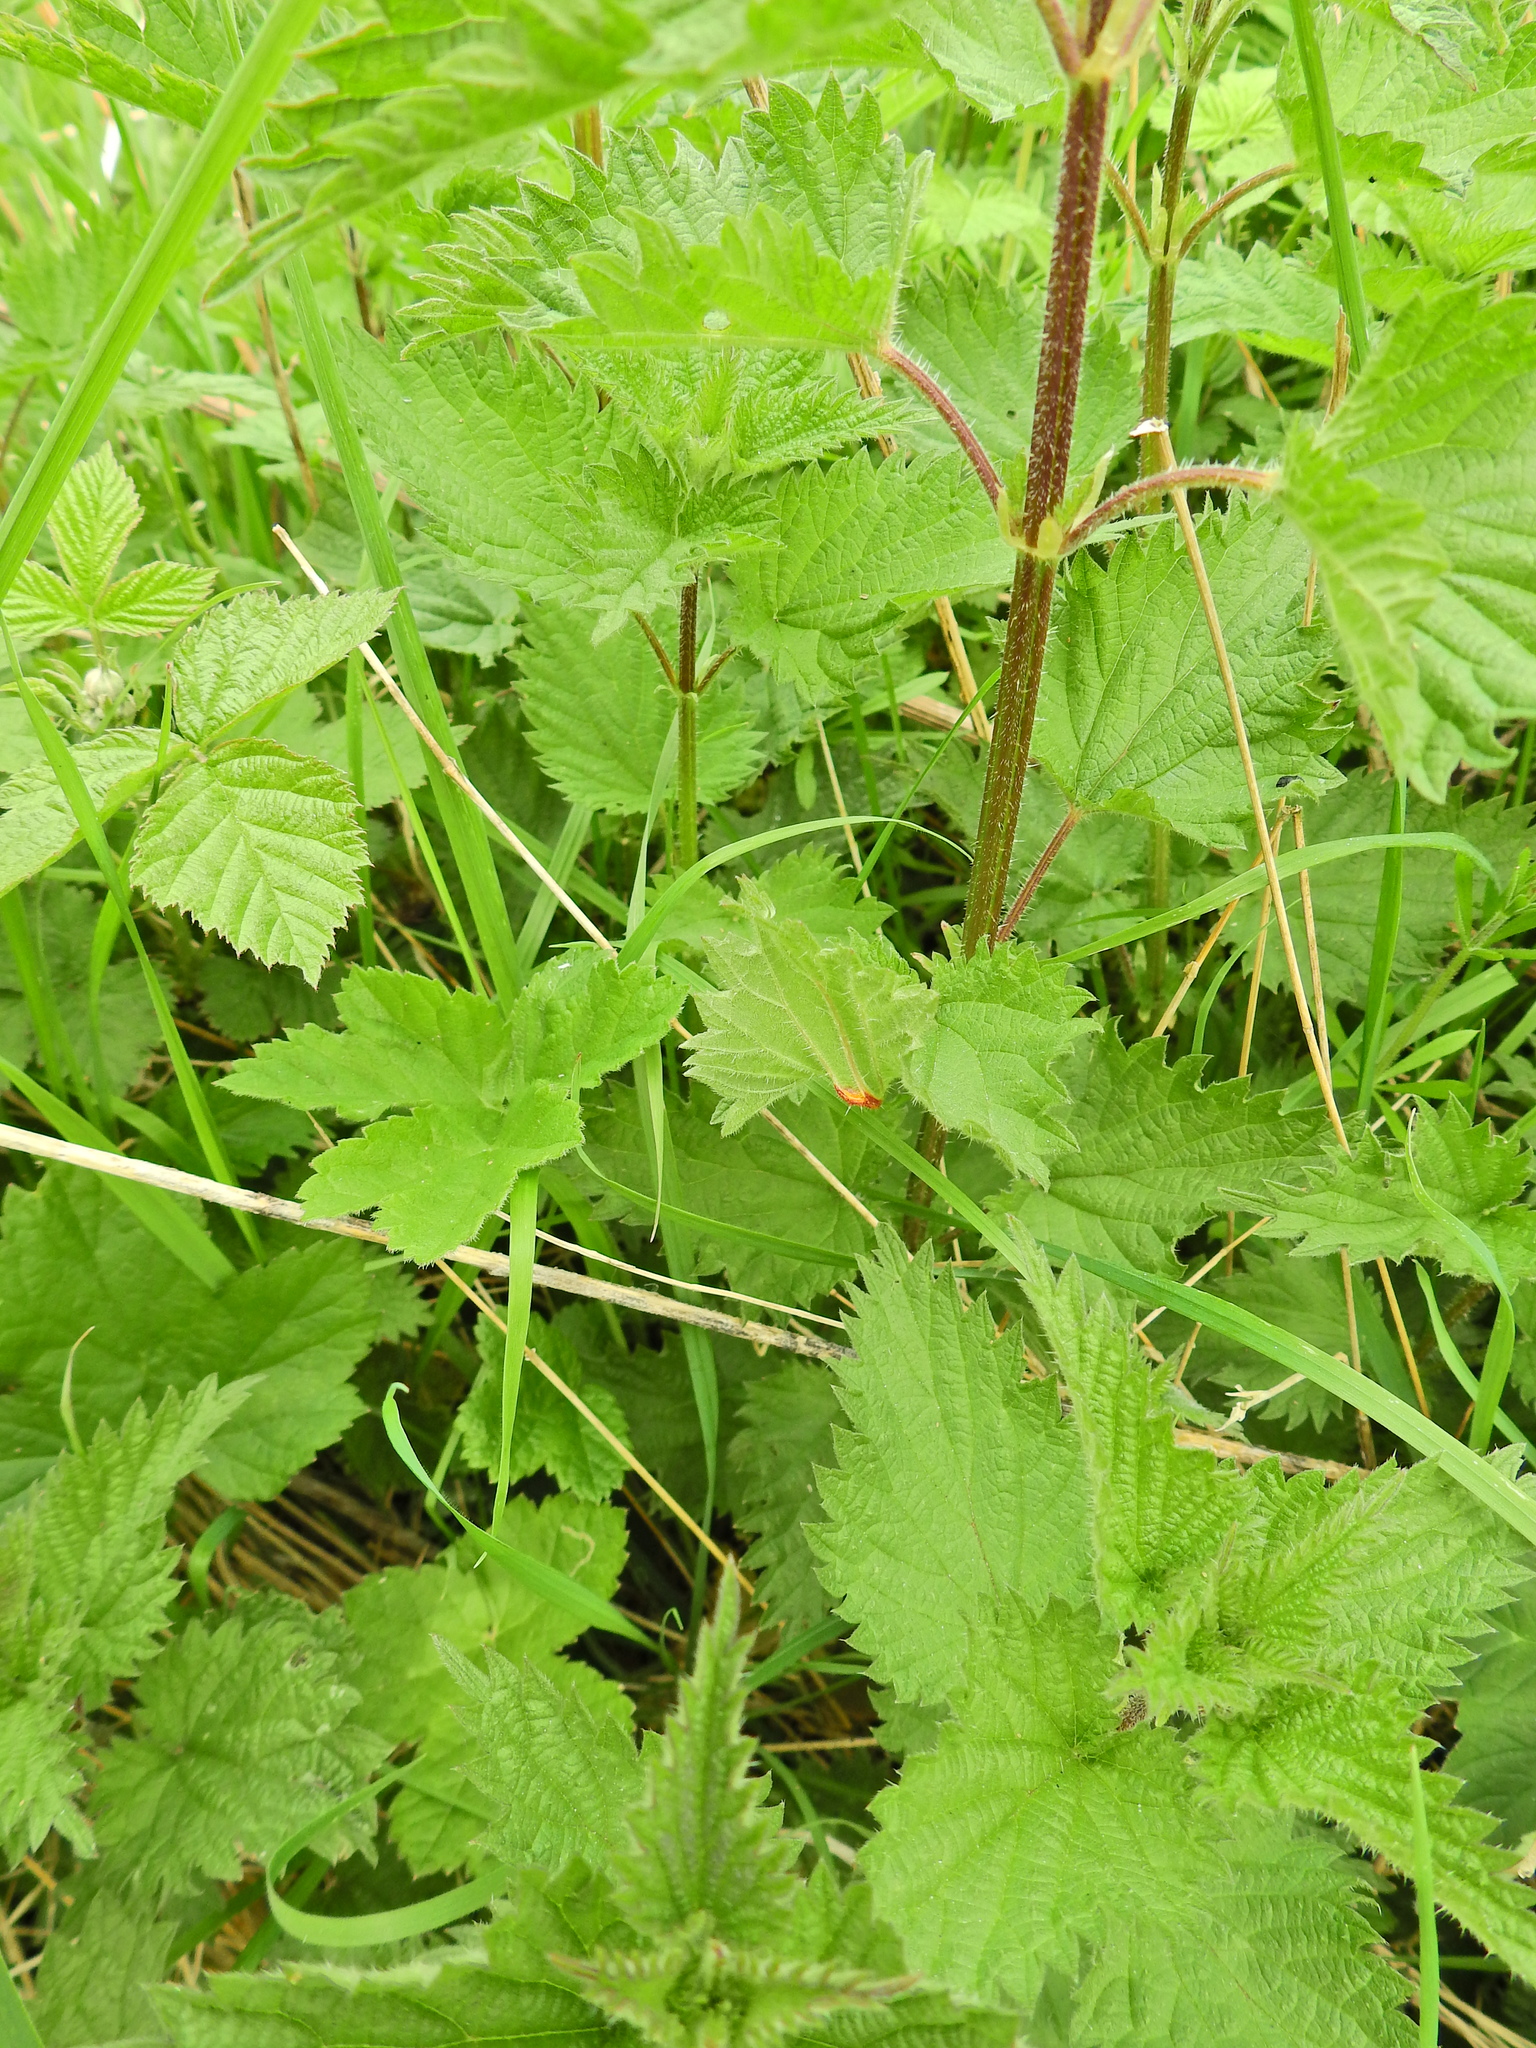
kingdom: Fungi
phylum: Basidiomycota
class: Pucciniomycetes
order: Pucciniales
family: Pucciniaceae
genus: Puccinia
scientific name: Puccinia urticata
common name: Nettle clustercup rust fungus
